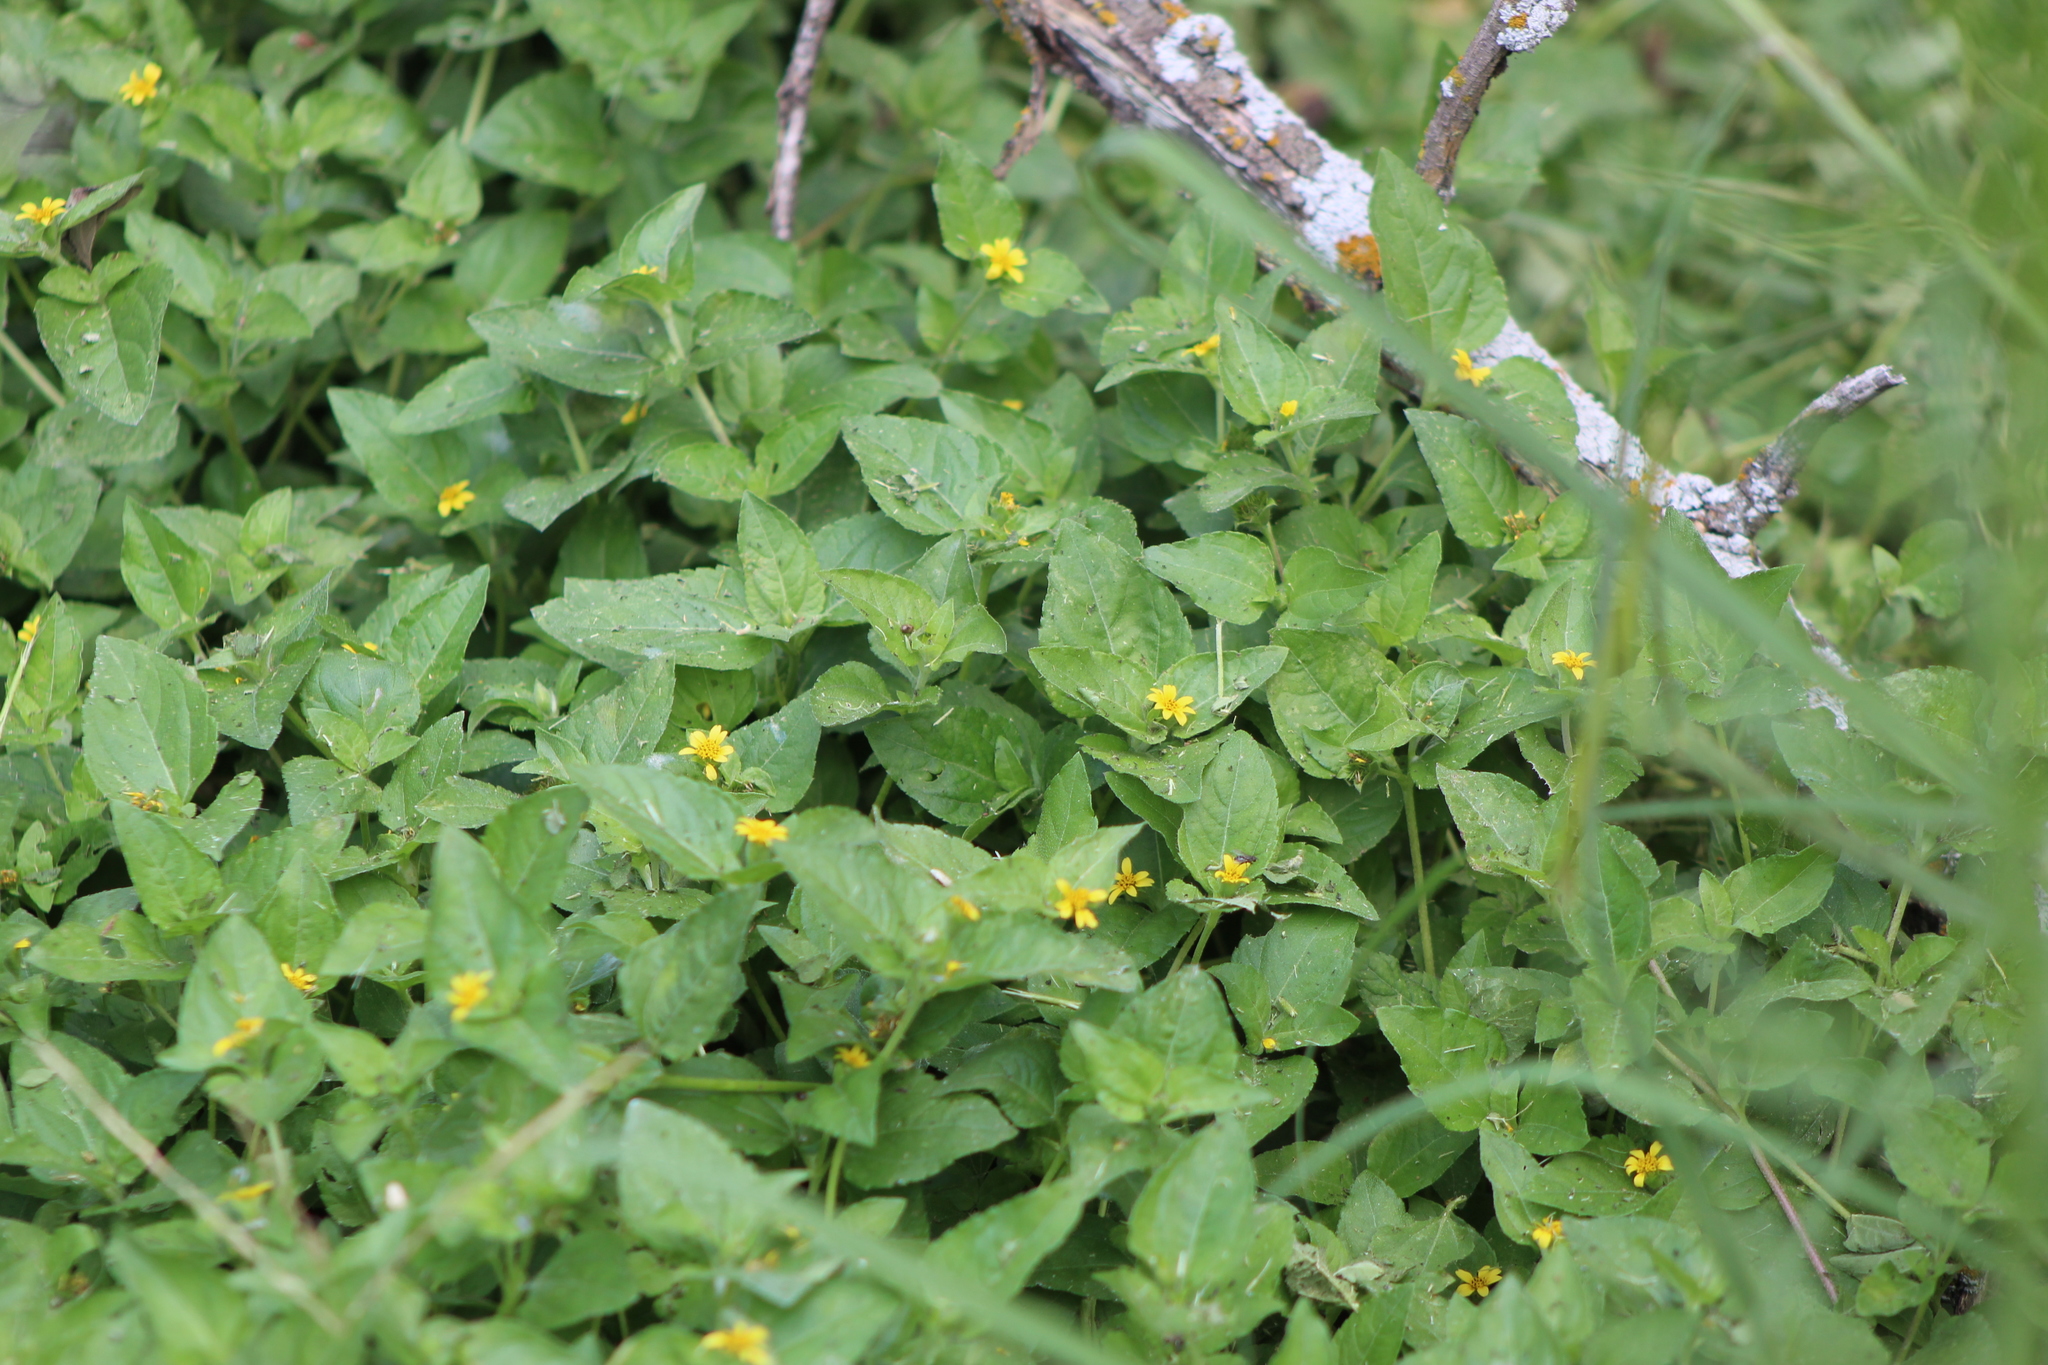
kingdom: Plantae
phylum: Tracheophyta
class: Magnoliopsida
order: Asterales
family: Asteraceae
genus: Calyptocarpus
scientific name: Calyptocarpus vialis
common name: Straggler daisy
